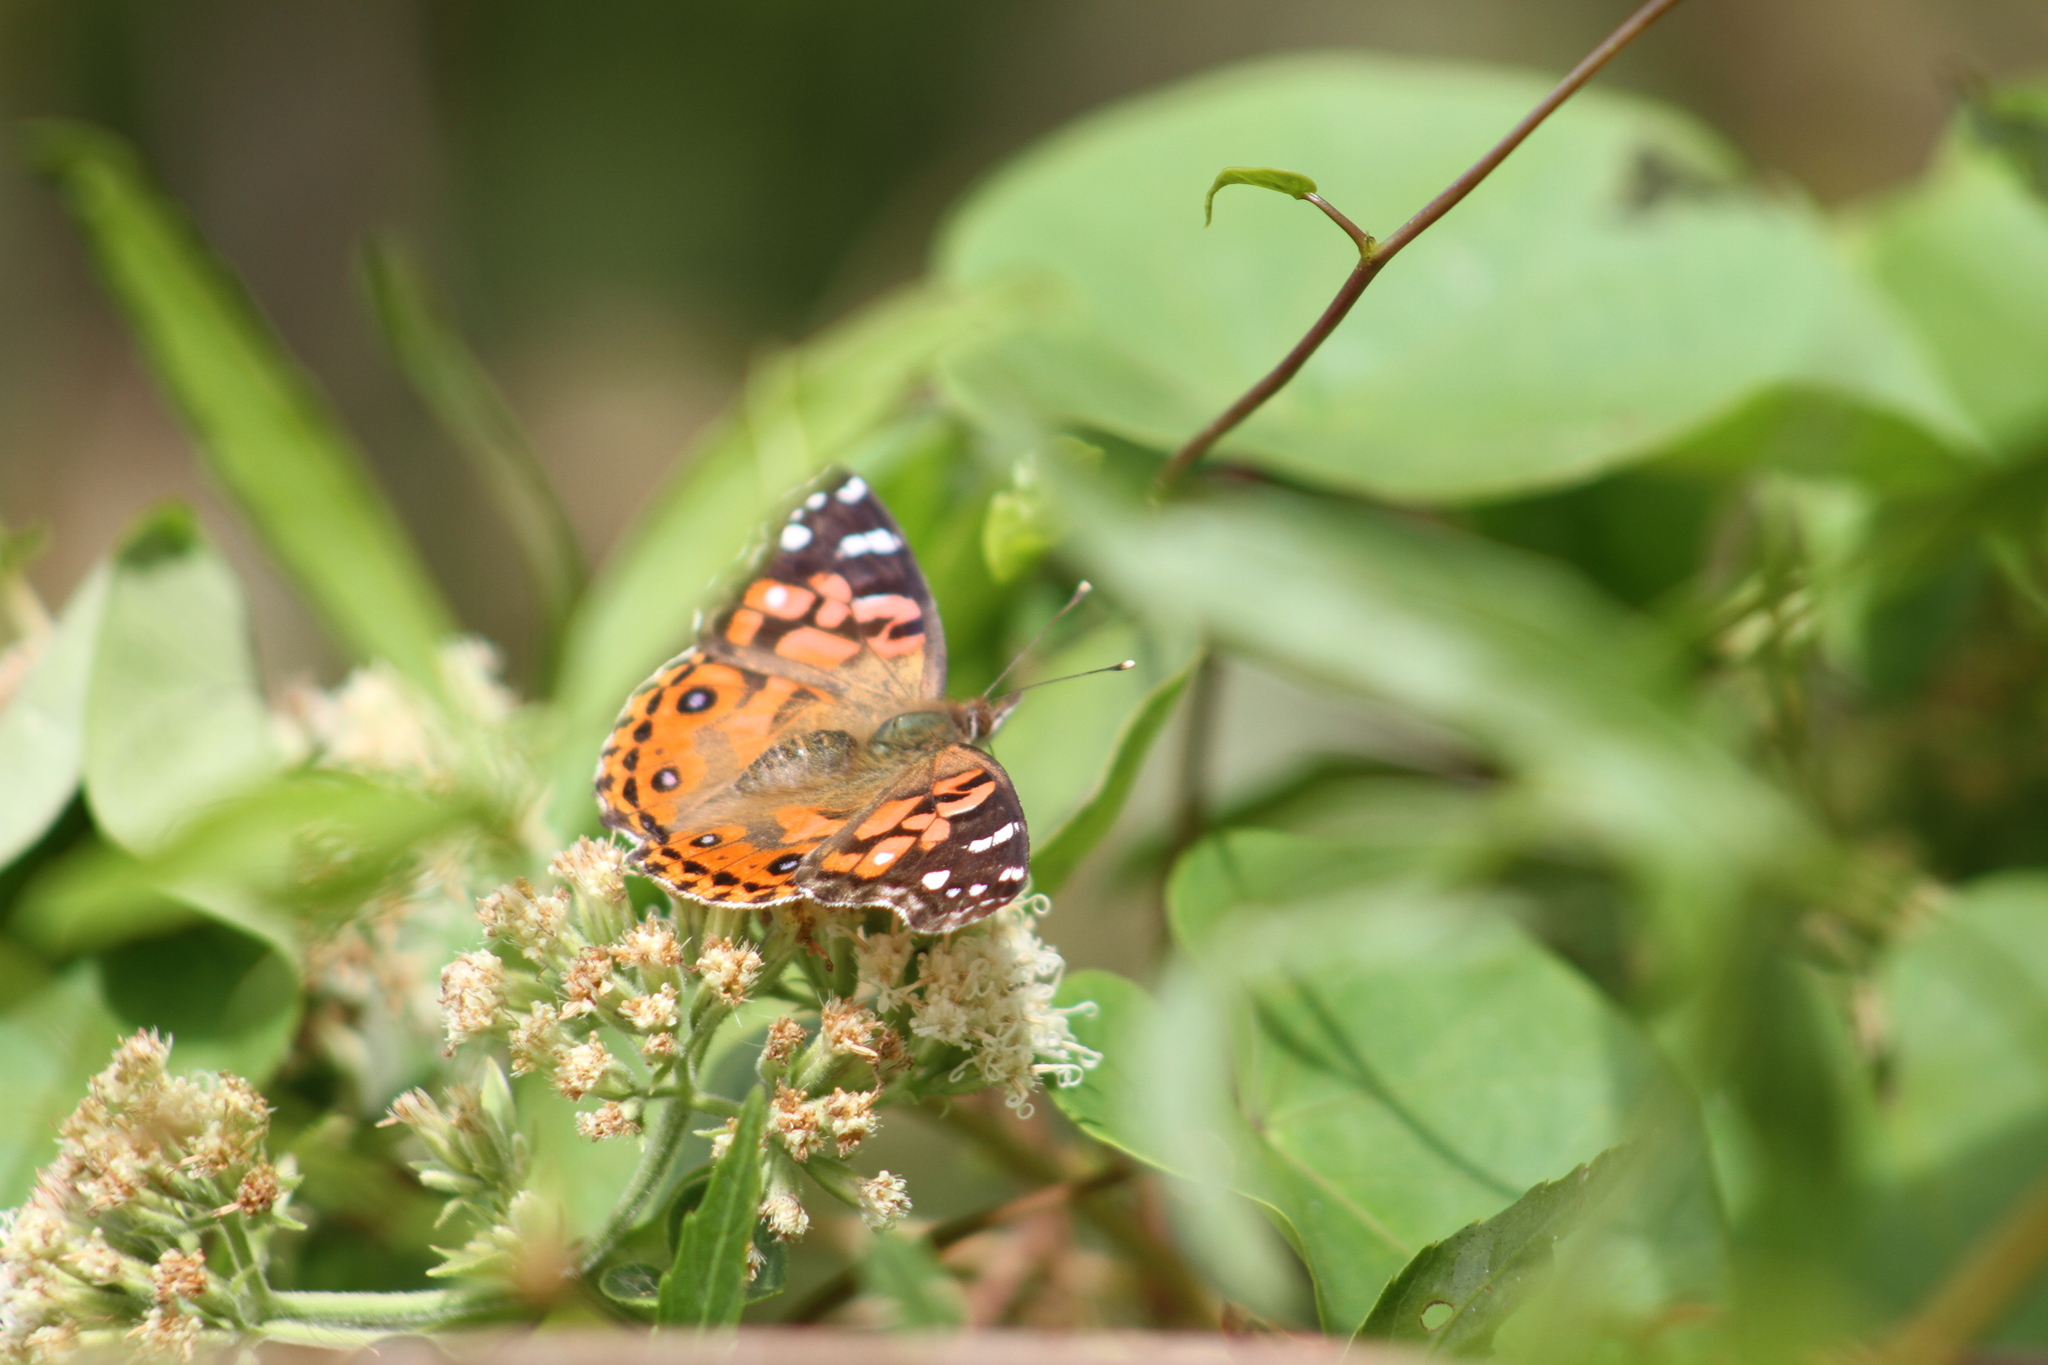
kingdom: Animalia
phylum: Arthropoda
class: Insecta
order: Lepidoptera
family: Nymphalidae
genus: Vanessa
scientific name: Vanessa braziliensis
